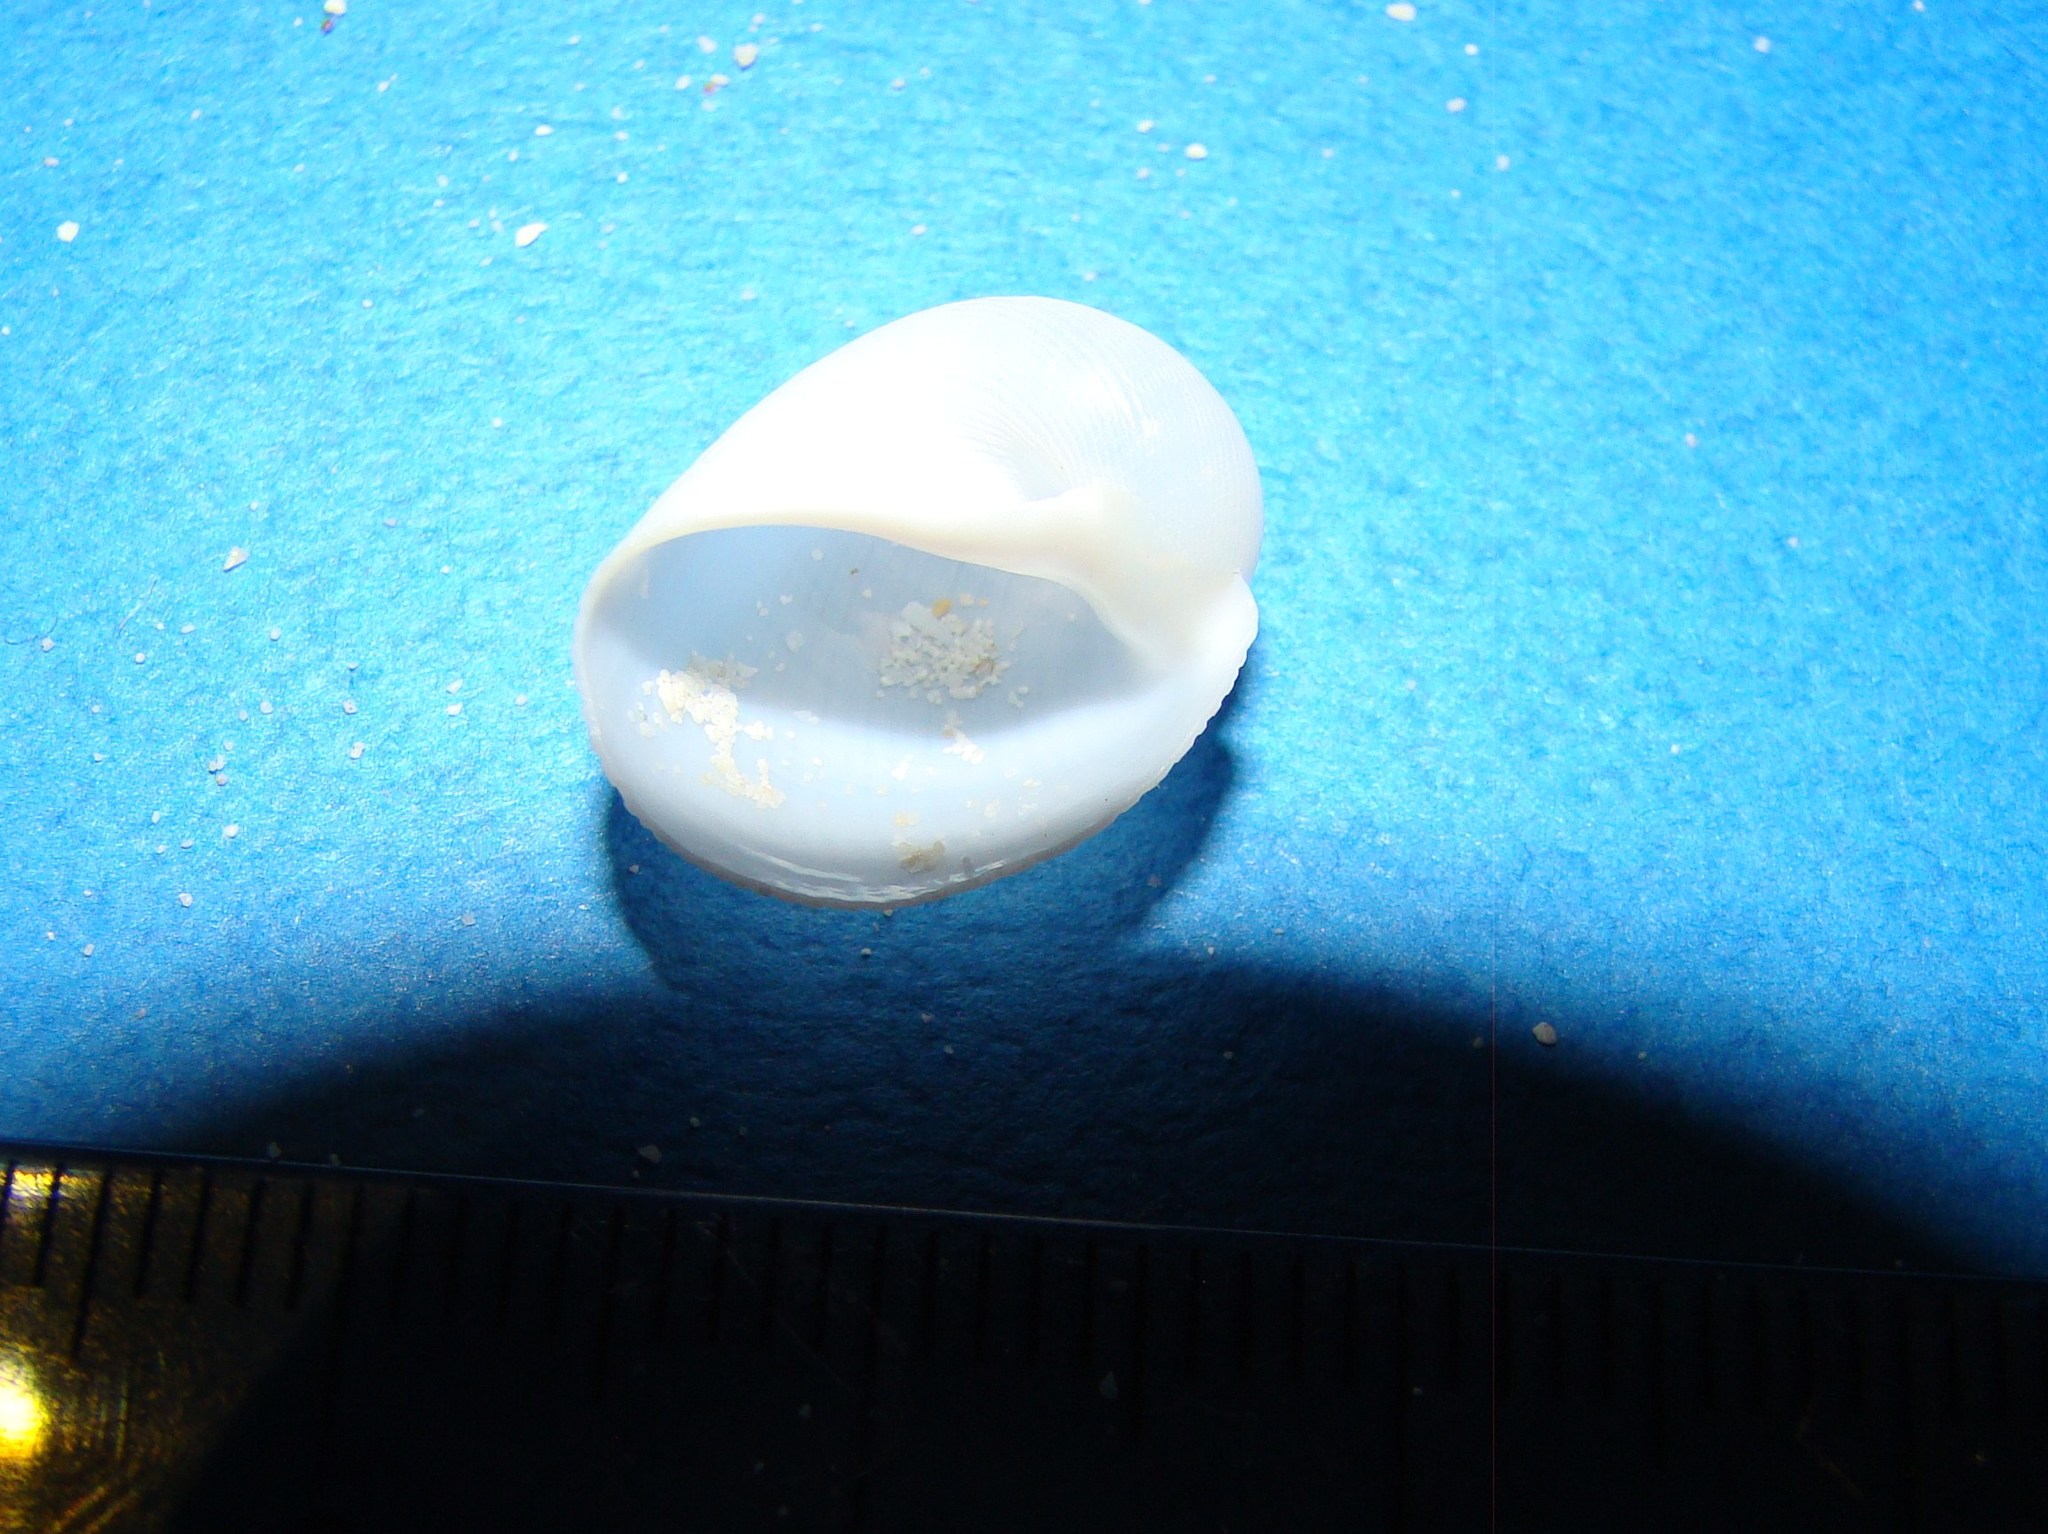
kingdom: Animalia
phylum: Mollusca
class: Gastropoda
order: Littorinimorpha
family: Naticidae
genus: Eunaticina
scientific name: Eunaticina papilla
